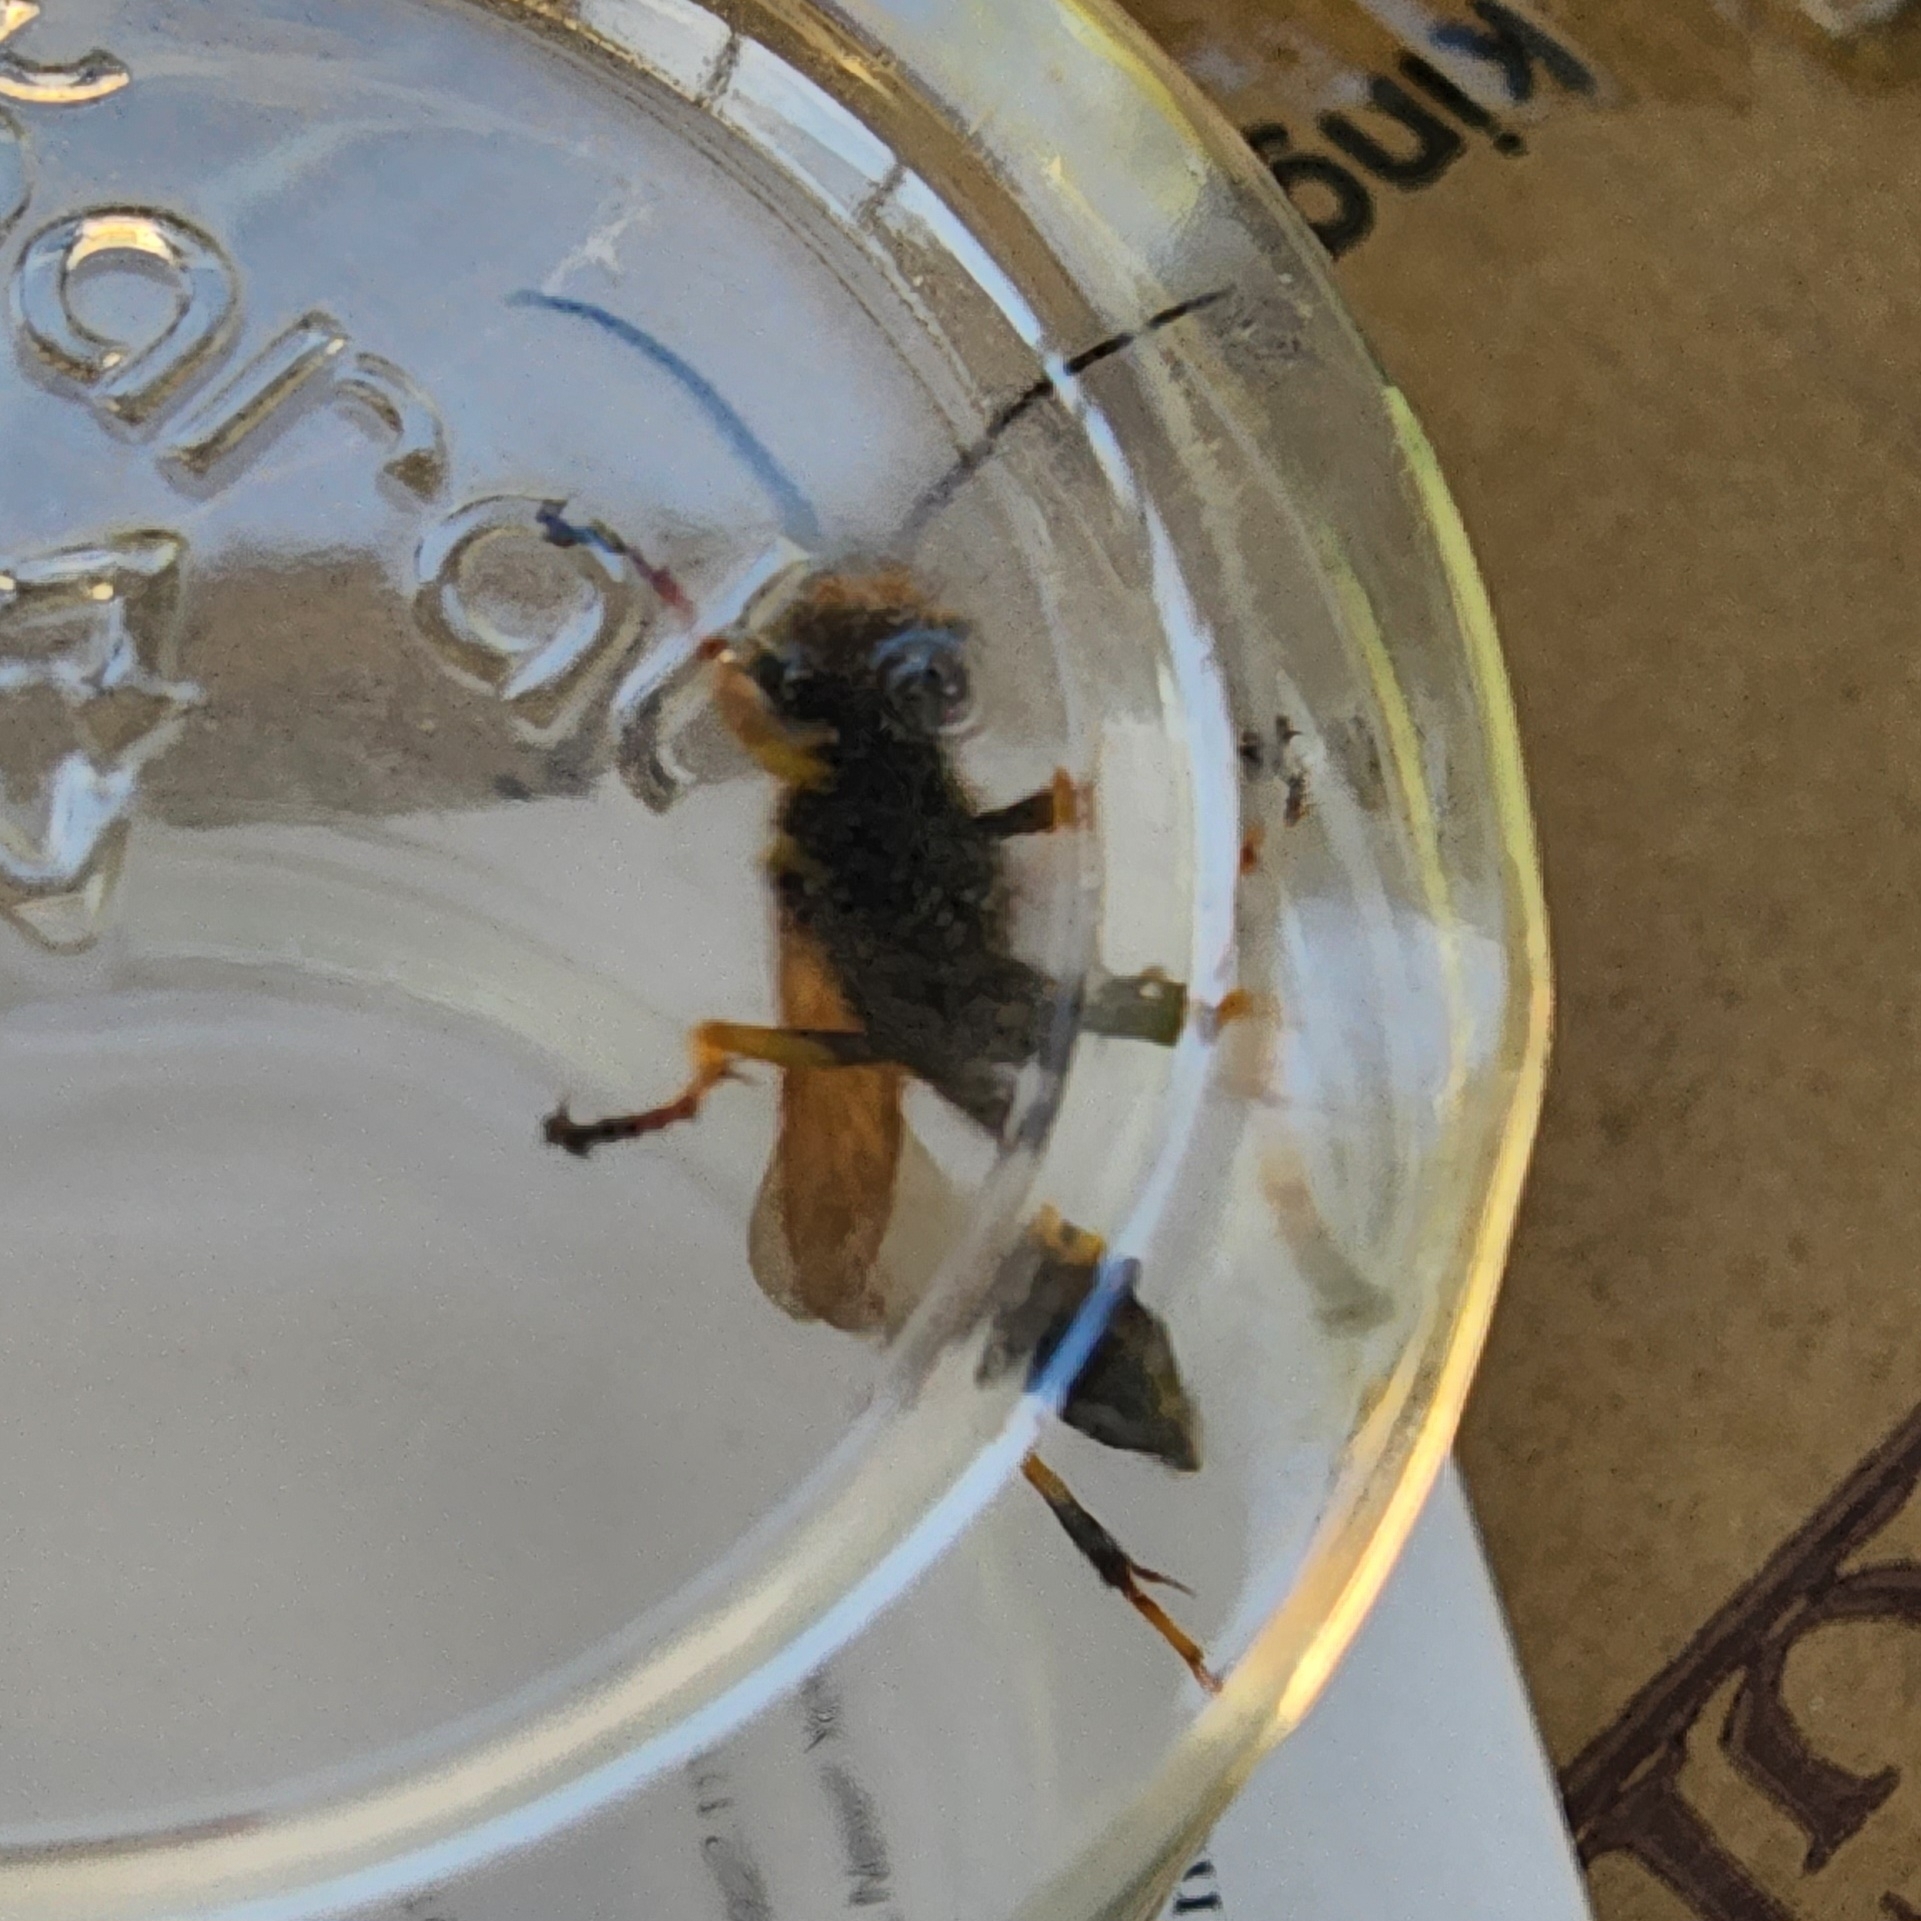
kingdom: Animalia
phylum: Arthropoda
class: Insecta
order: Hymenoptera
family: Sphecidae
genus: Sceliphron
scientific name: Sceliphron caementarium
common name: Mud dauber
